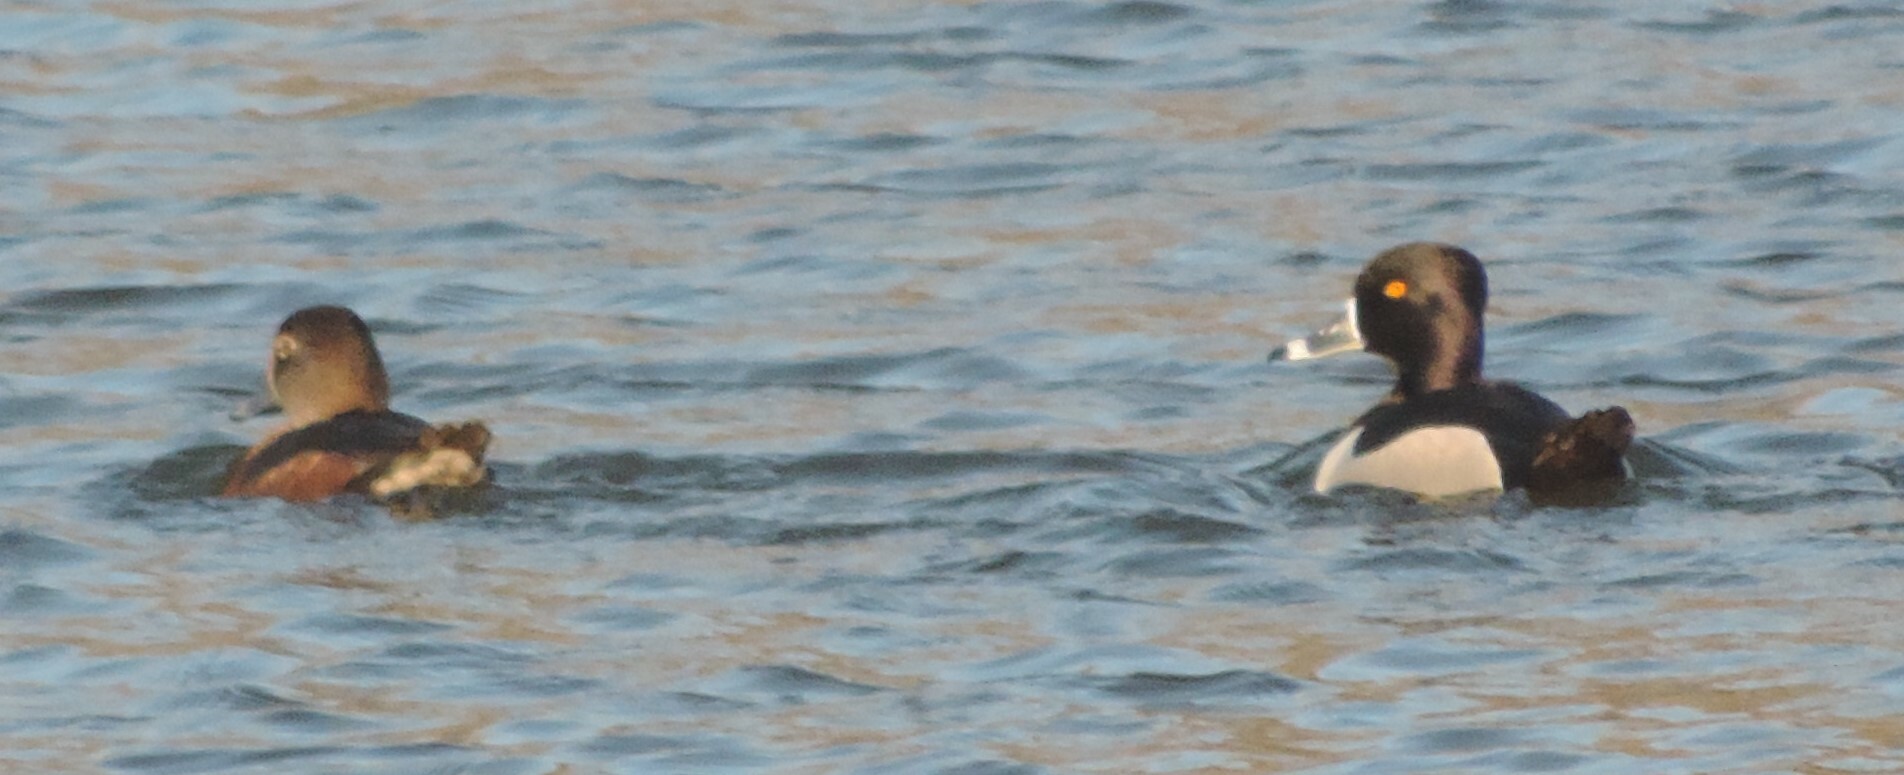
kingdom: Animalia
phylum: Chordata
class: Aves
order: Anseriformes
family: Anatidae
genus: Aythya
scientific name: Aythya collaris
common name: Ring-necked duck
